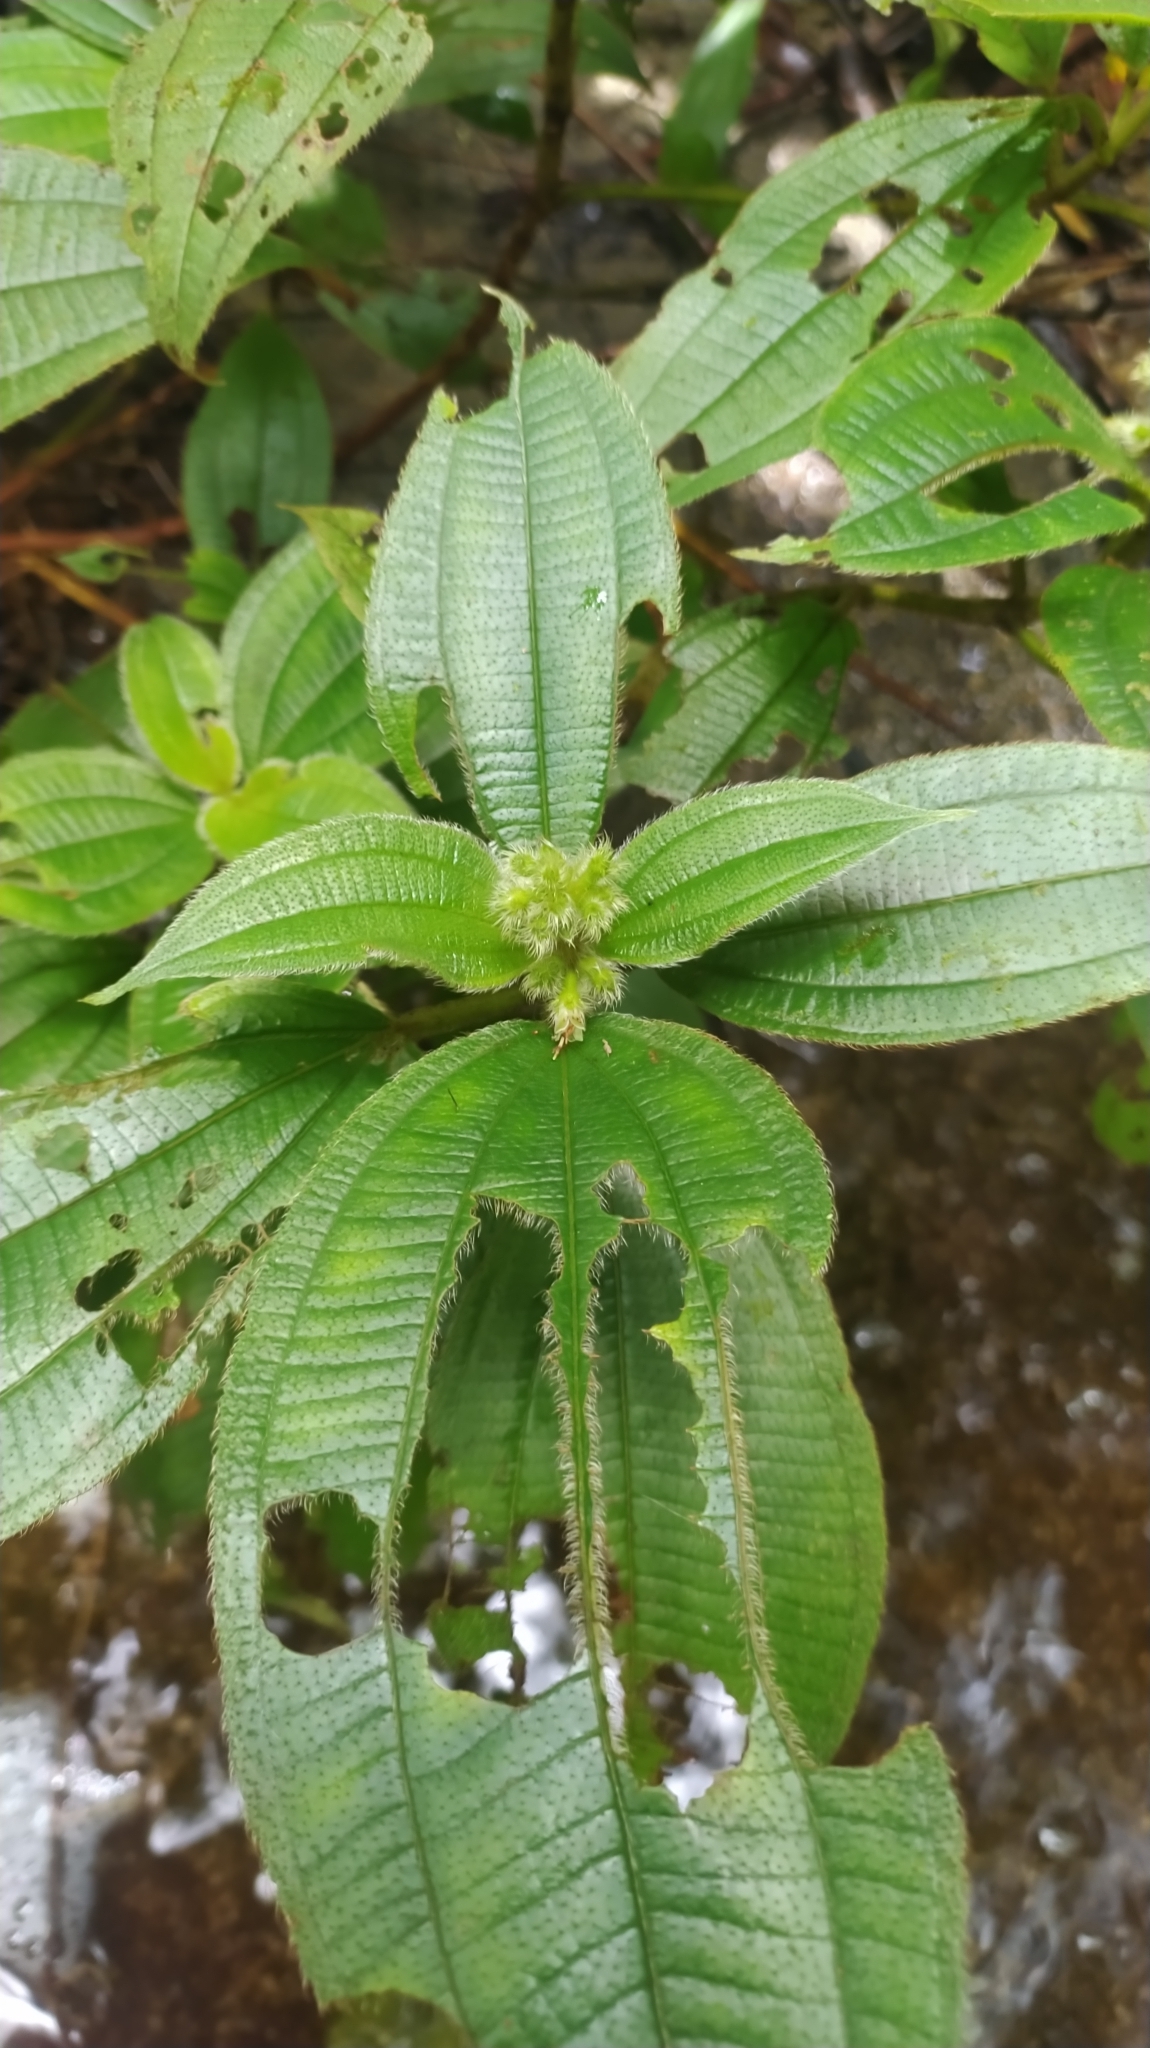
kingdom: Plantae
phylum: Tracheophyta
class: Magnoliopsida
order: Myrtales
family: Melastomataceae
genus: Miconia
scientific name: Miconia bracteata
